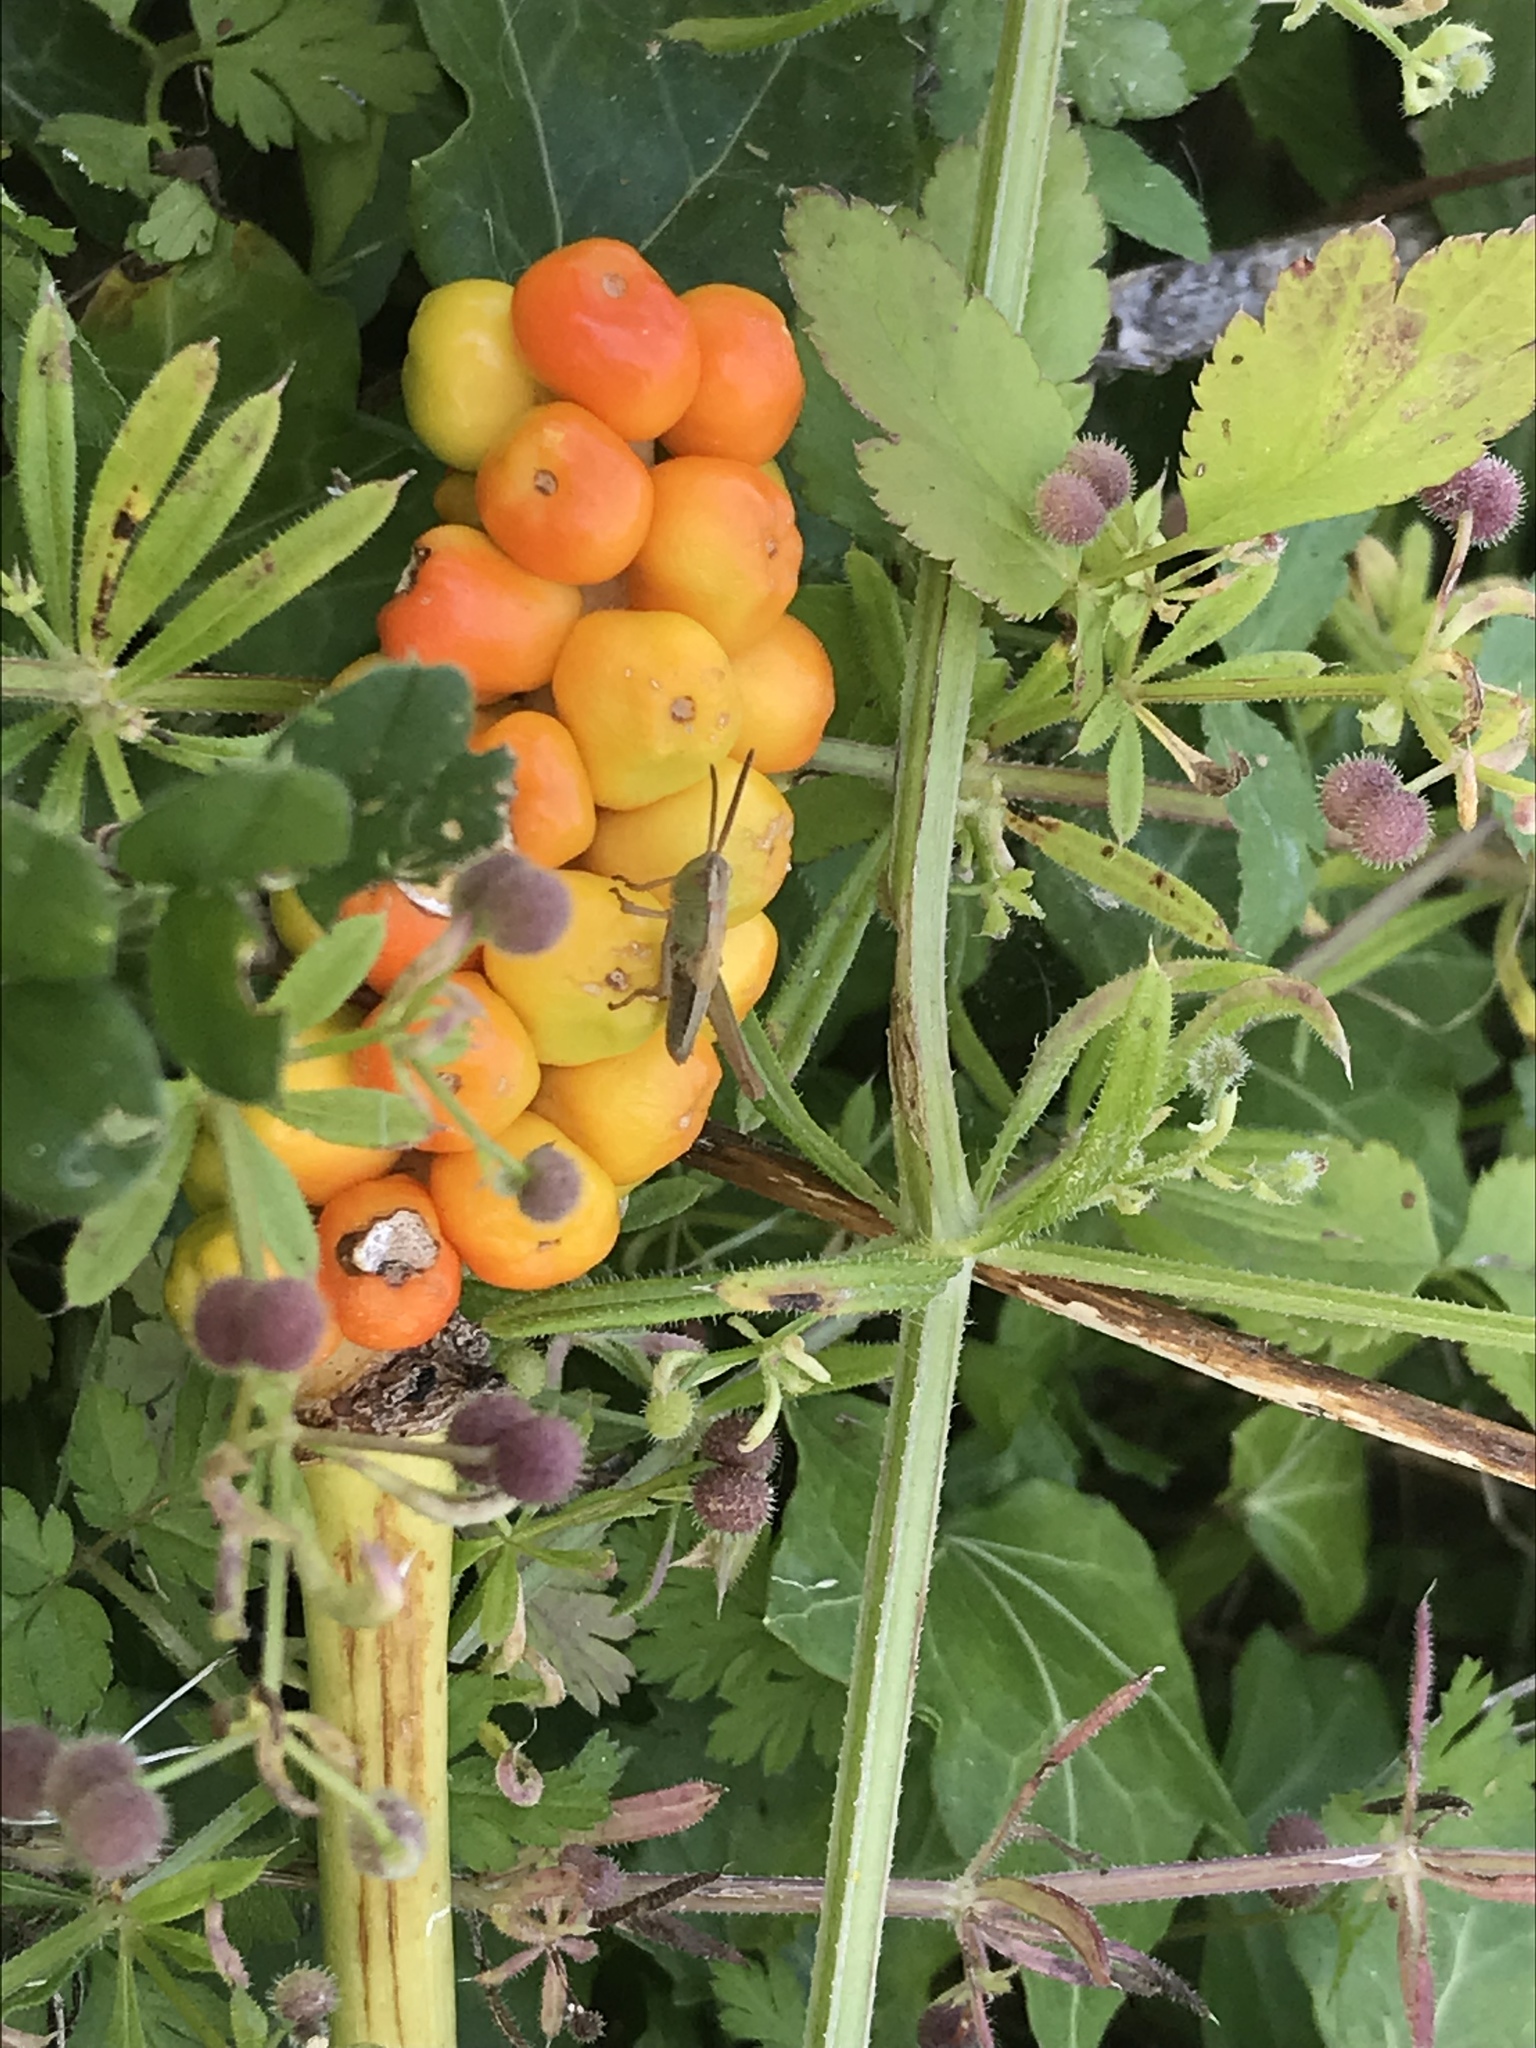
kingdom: Animalia
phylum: Arthropoda
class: Insecta
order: Orthoptera
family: Acrididae
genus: Pseudochorthippus
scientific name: Pseudochorthippus parallelus
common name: Meadow grasshopper
